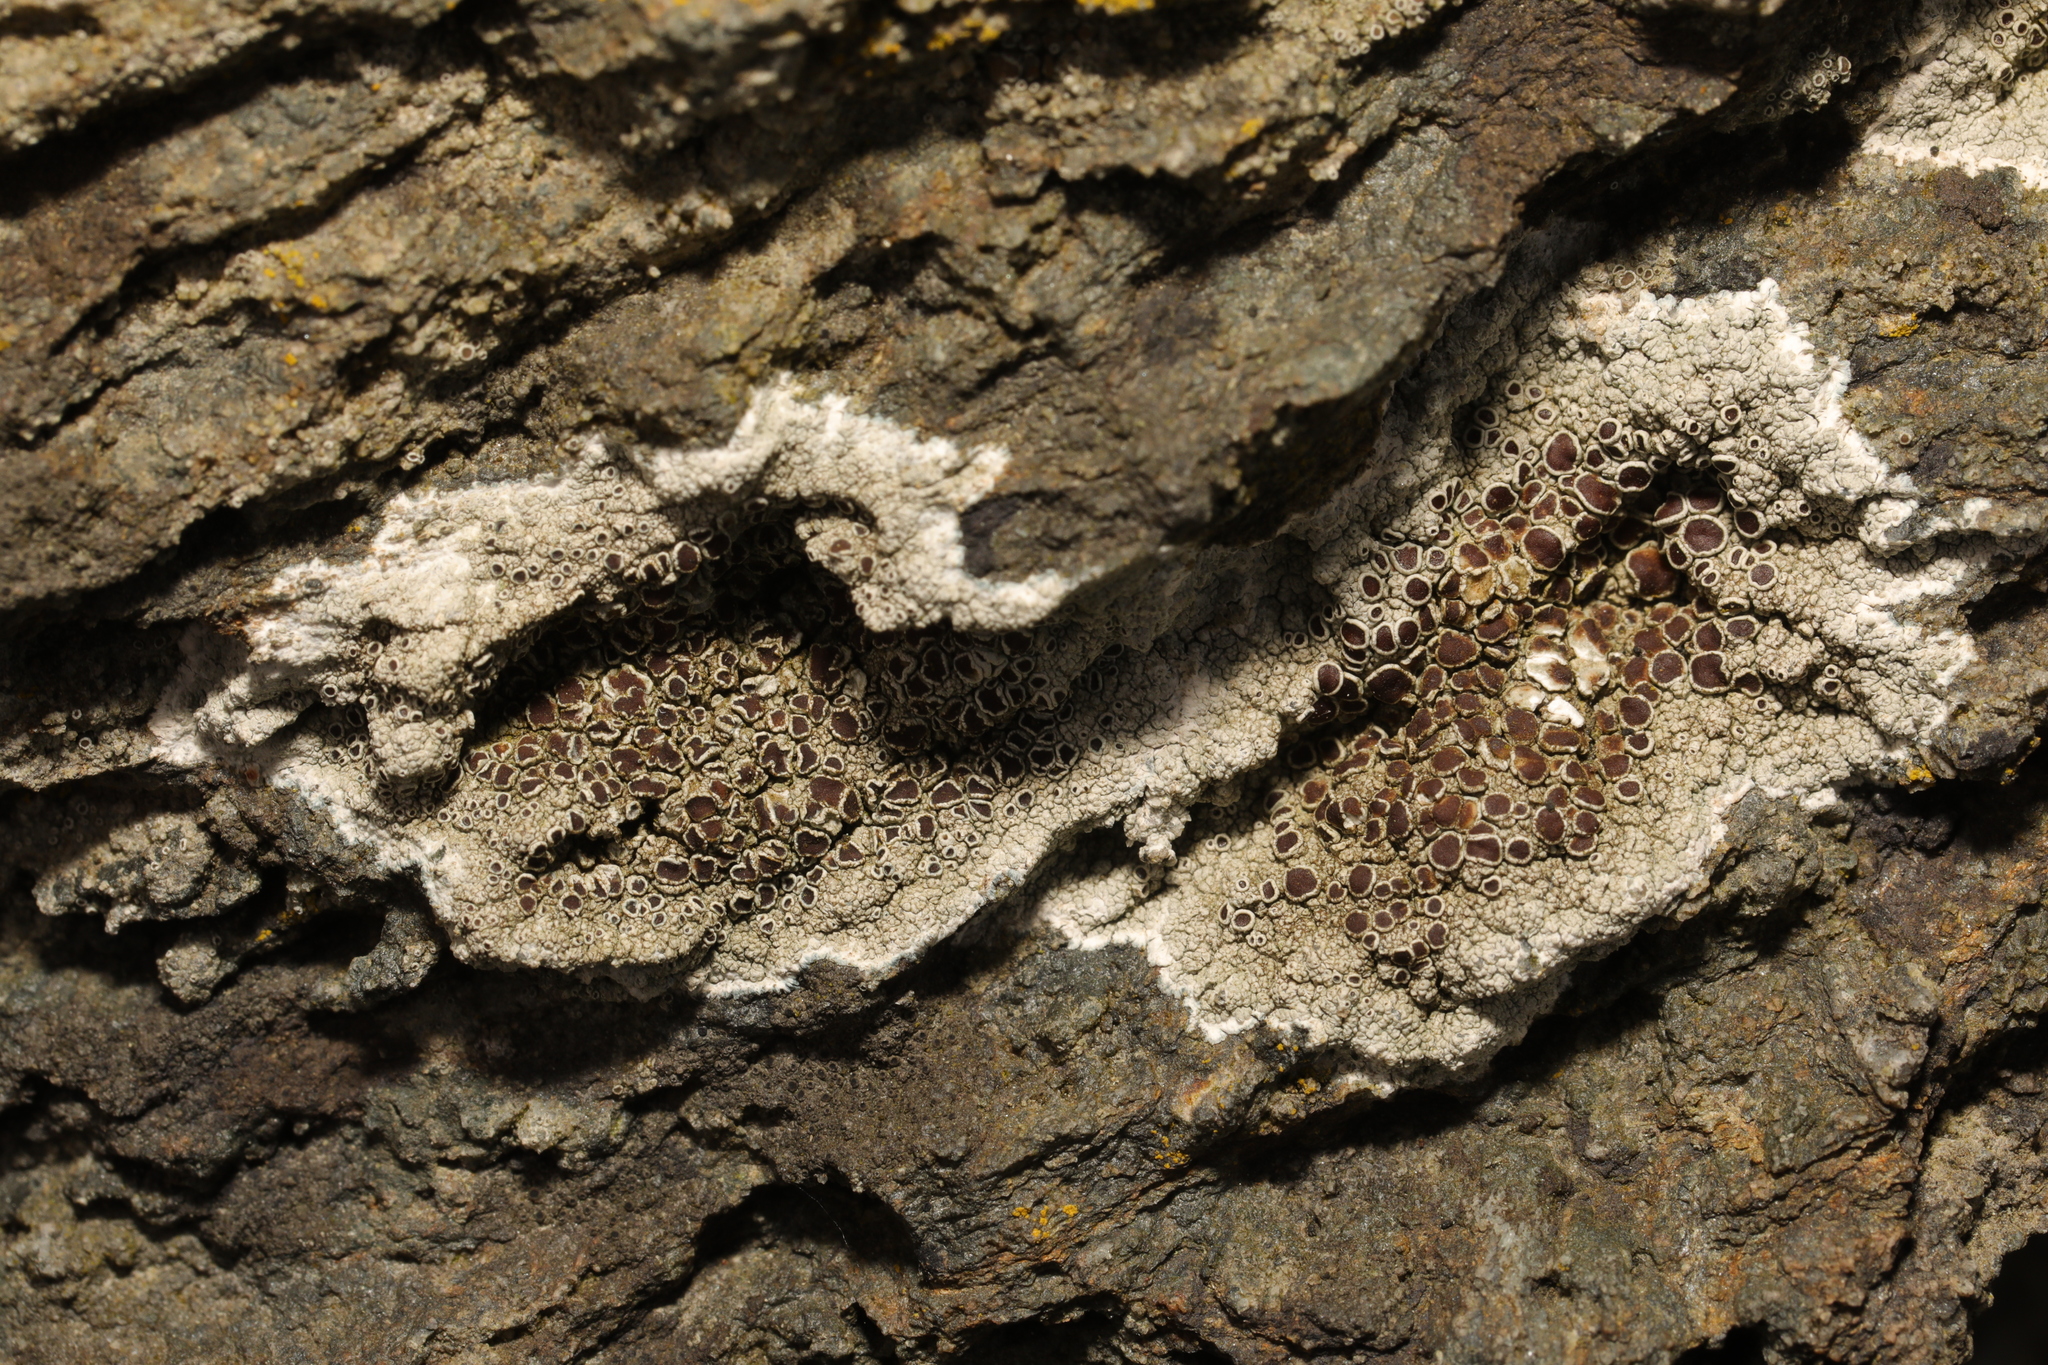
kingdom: Fungi
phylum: Ascomycota
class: Lecanoromycetes
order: Lecanorales
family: Lecanoraceae
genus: Lecanora
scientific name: Lecanora campestris
